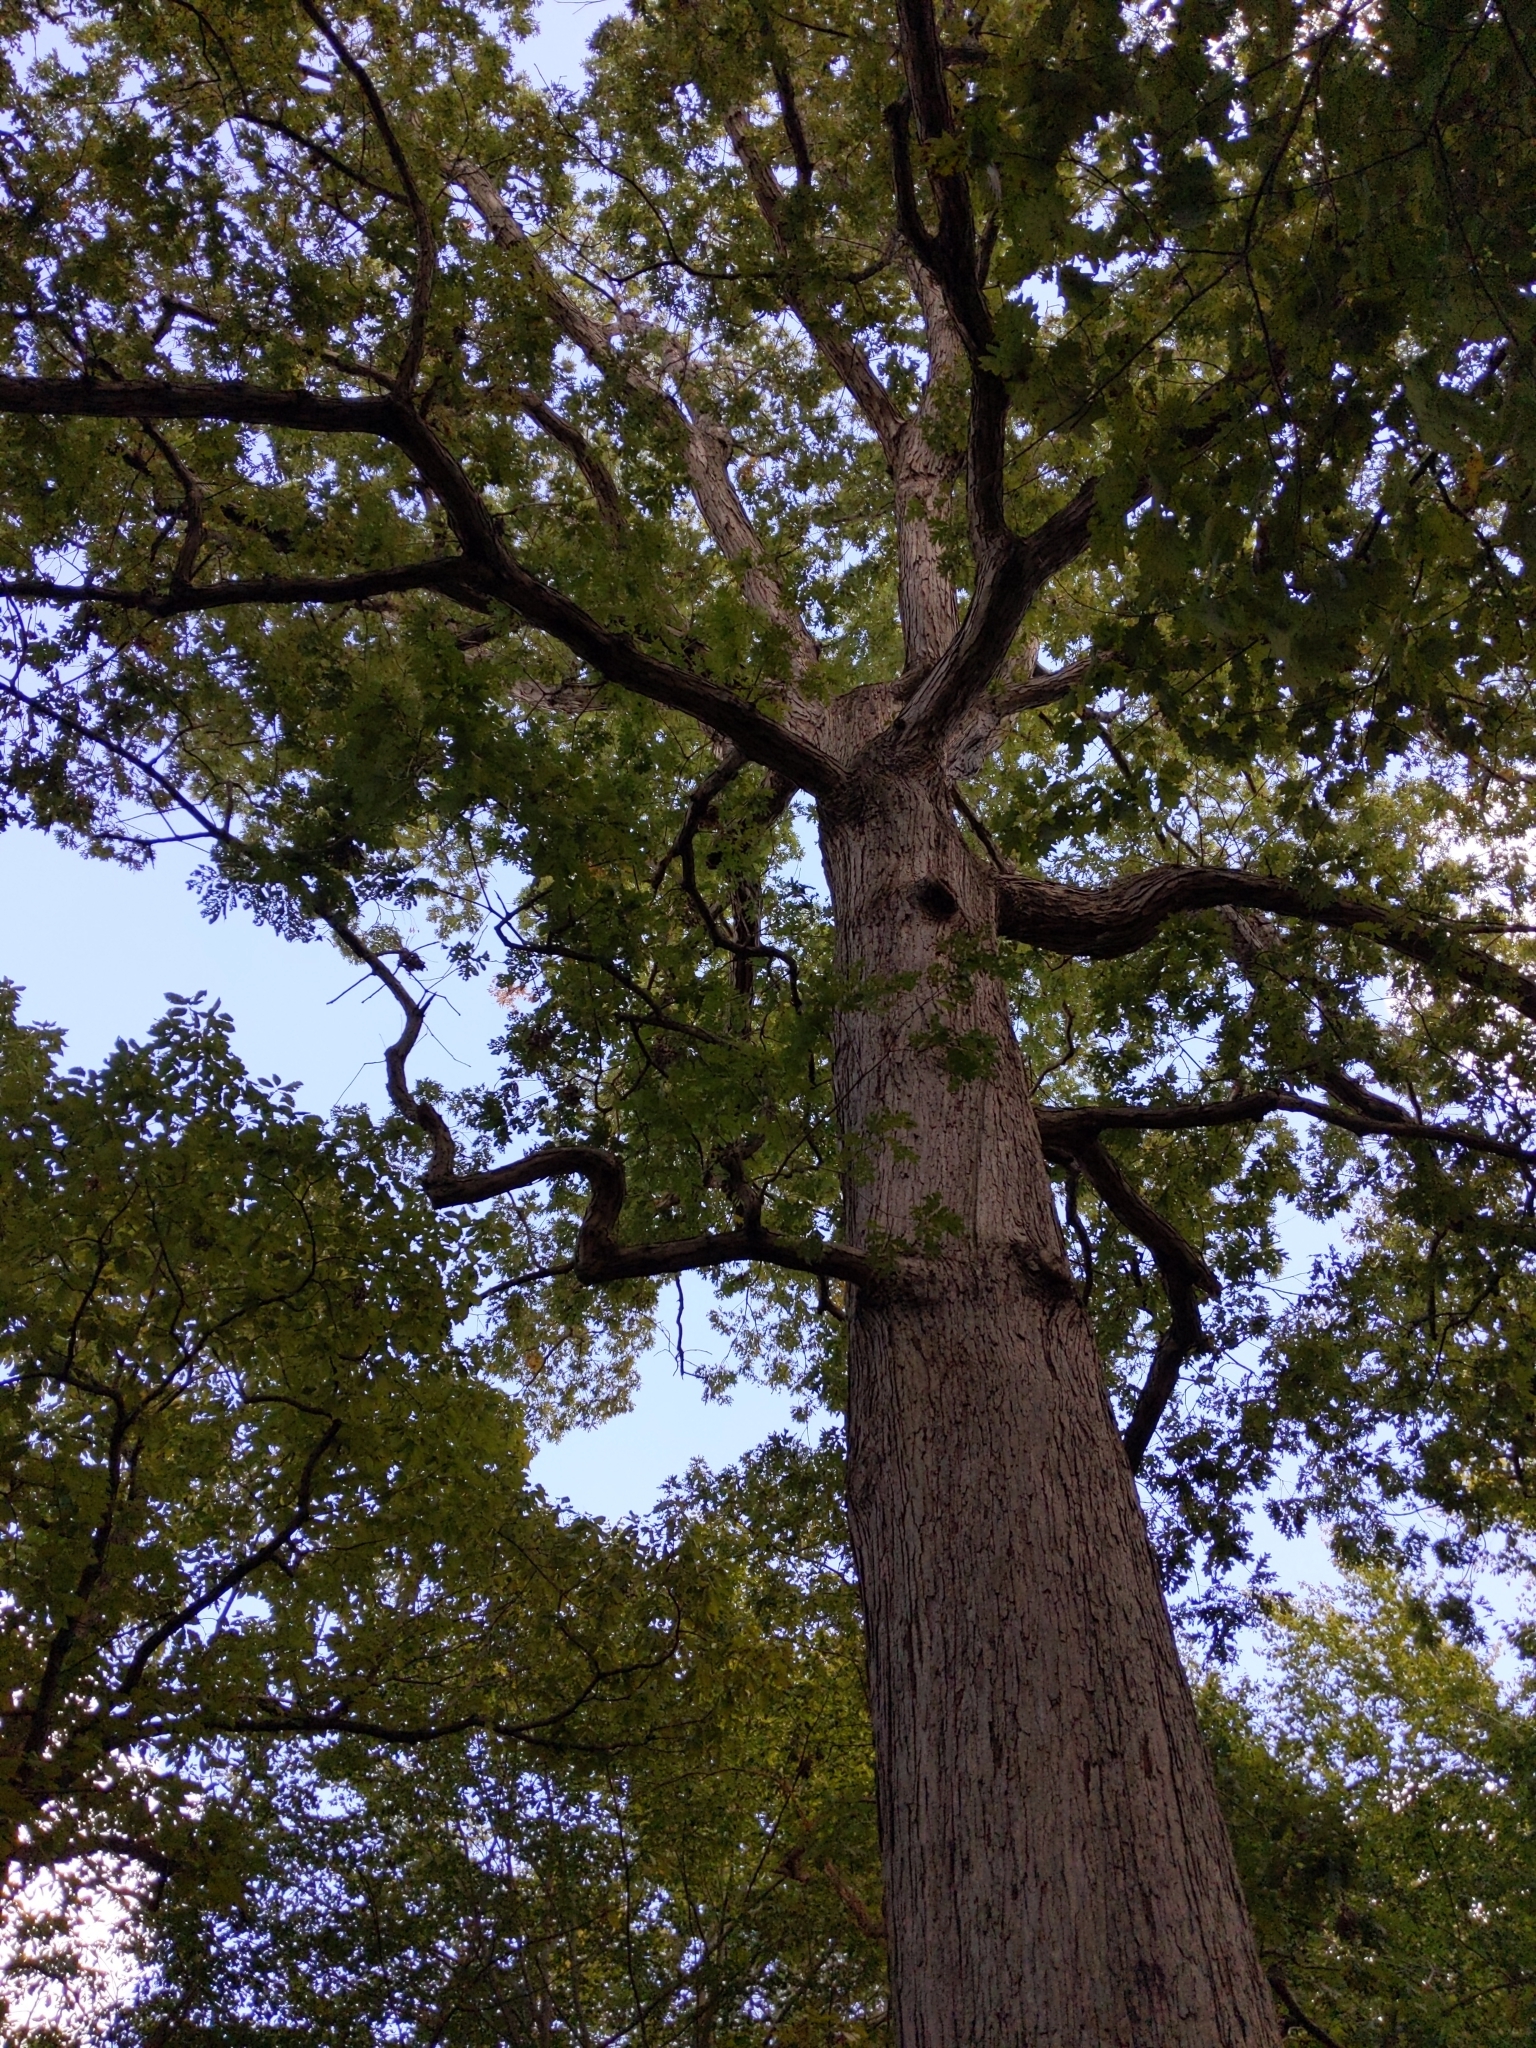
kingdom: Plantae
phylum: Tracheophyta
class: Magnoliopsida
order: Fagales
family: Fagaceae
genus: Quercus
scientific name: Quercus alba
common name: White oak
